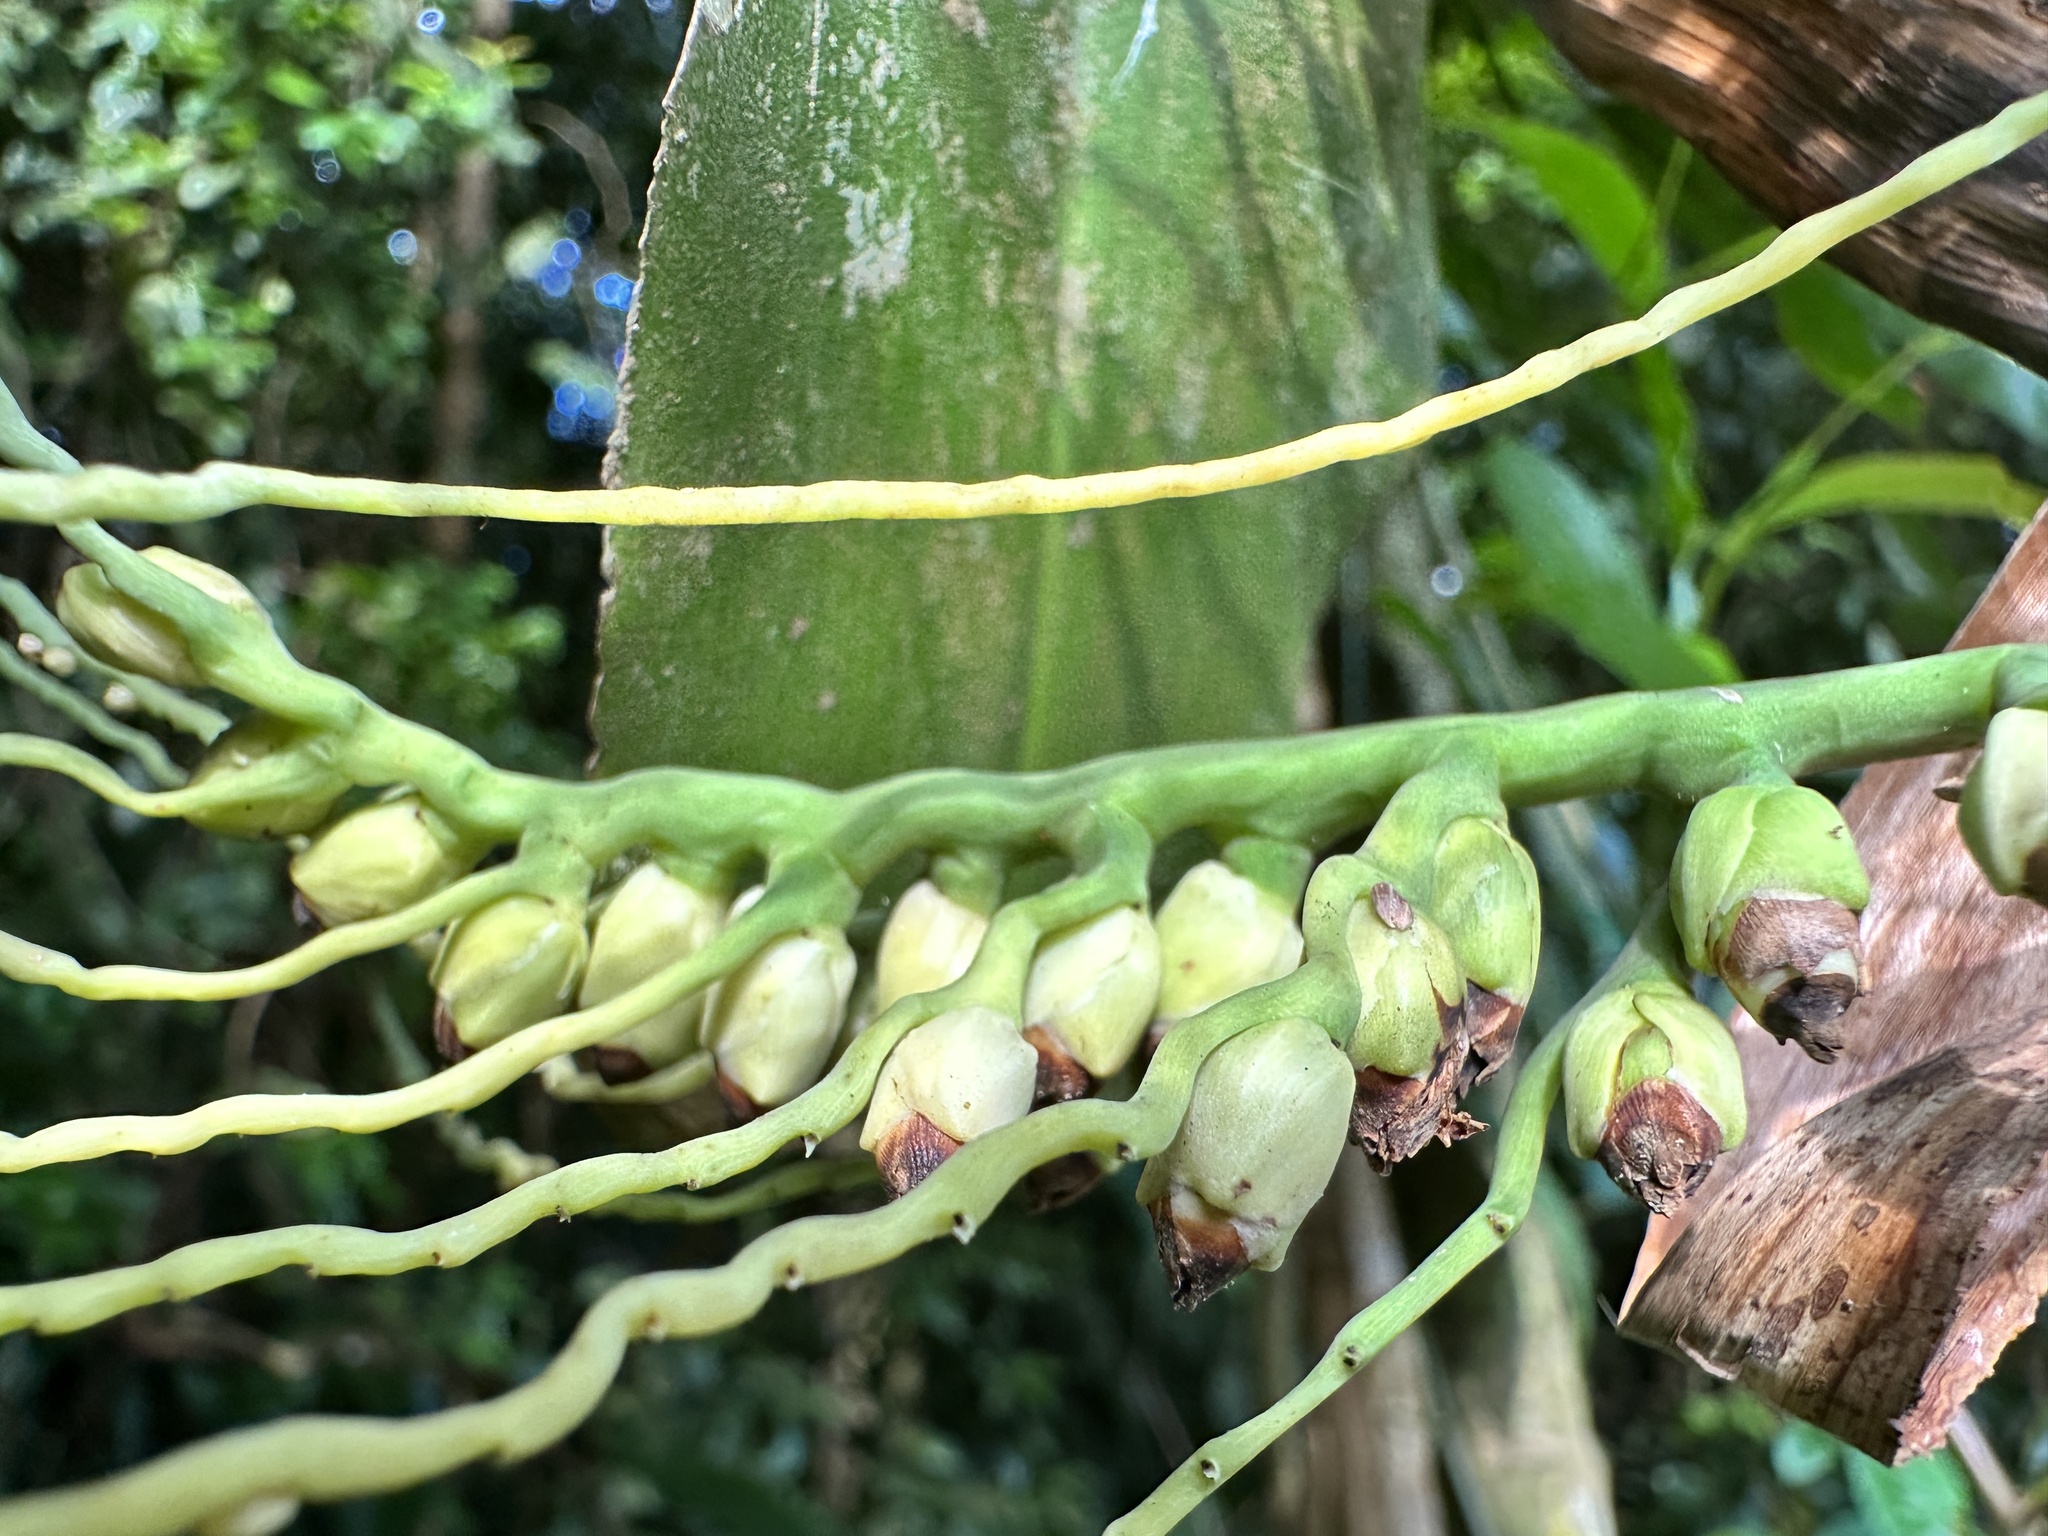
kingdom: Plantae
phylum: Tracheophyta
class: Liliopsida
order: Arecales
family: Arecaceae
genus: Areca
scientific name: Areca triandra
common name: Australian areca palm
